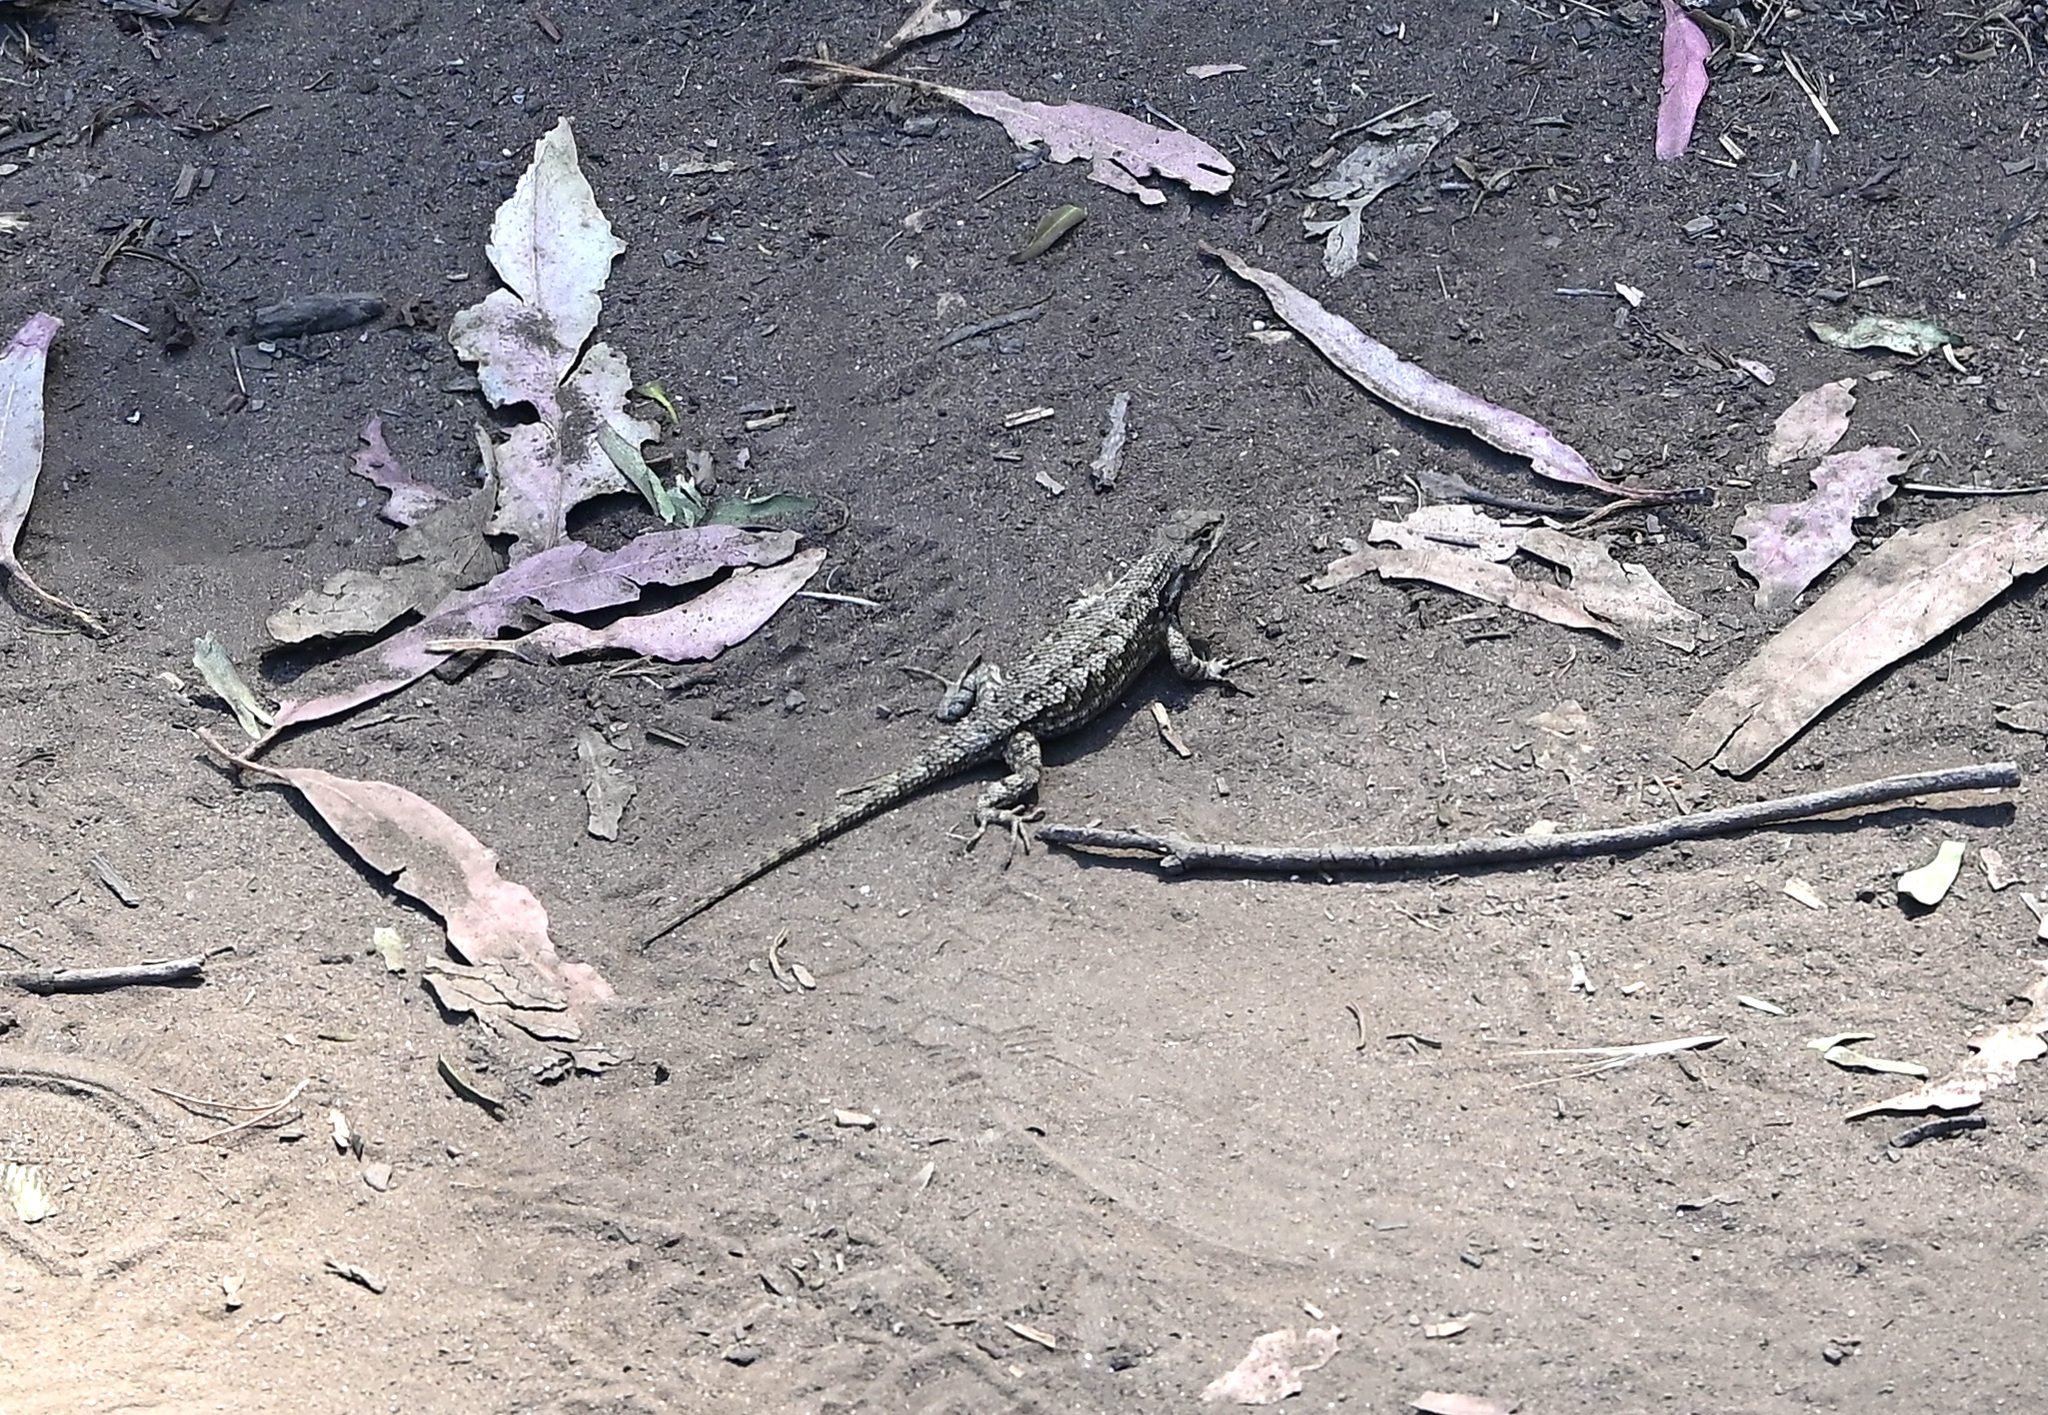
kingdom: Animalia
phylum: Chordata
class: Squamata
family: Phrynosomatidae
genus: Sceloporus
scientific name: Sceloporus occidentalis
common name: Western fence lizard
